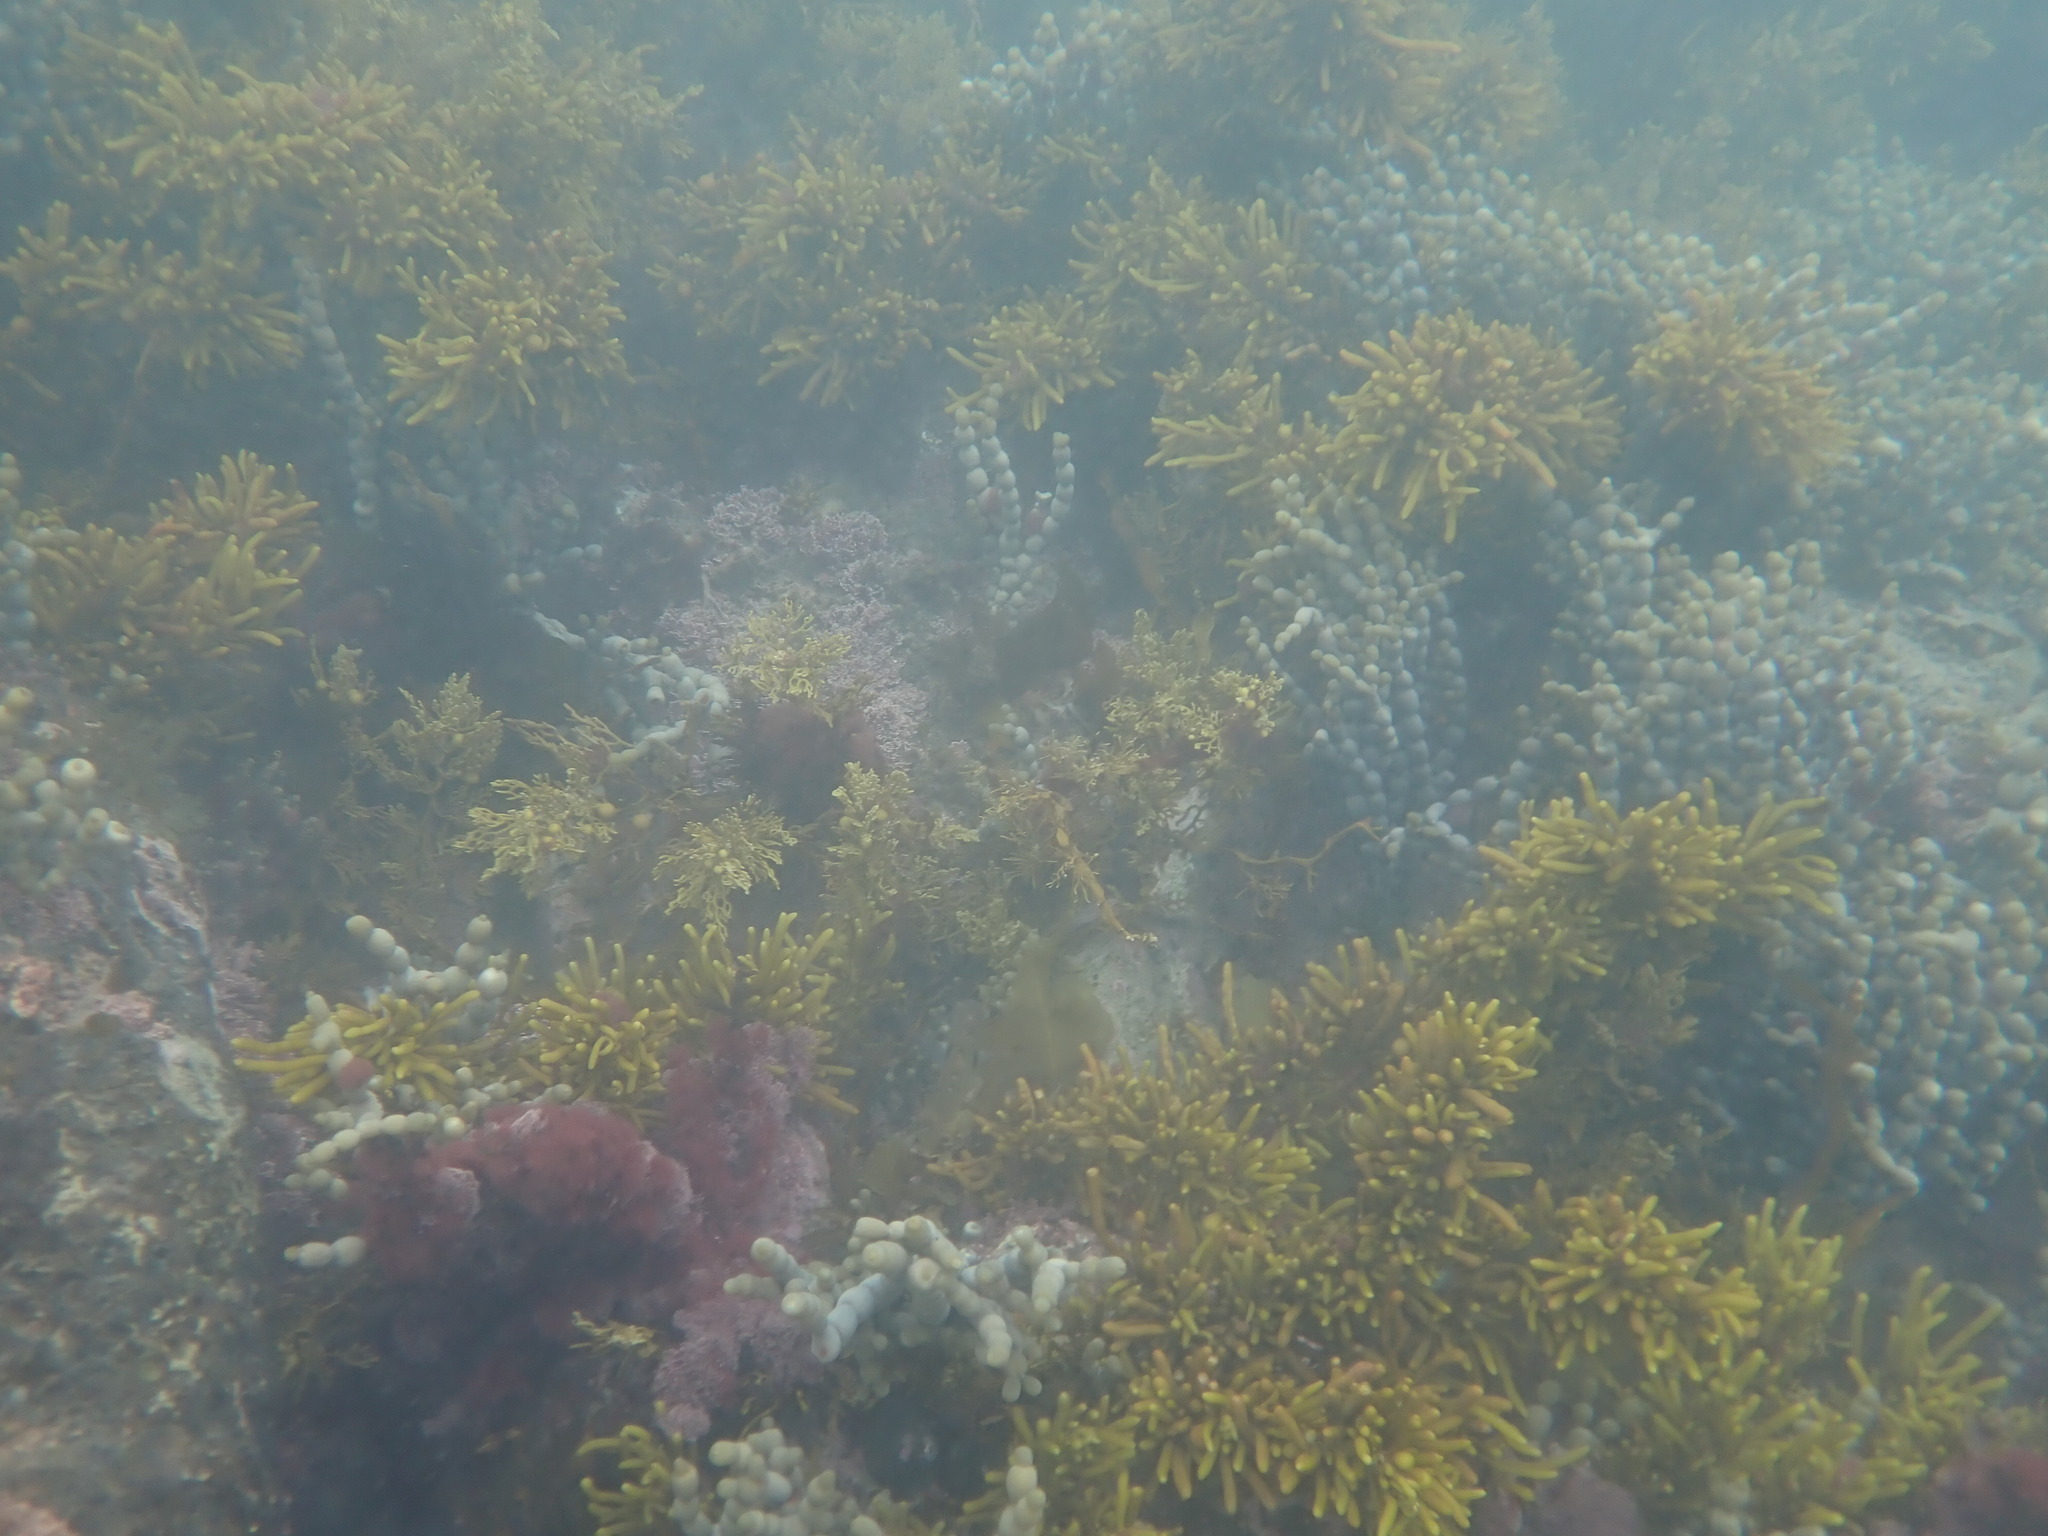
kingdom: Chromista
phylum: Ochrophyta
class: Phaeophyceae
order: Fucales
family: Hormosiraceae
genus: Hormosira
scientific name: Hormosira banksii
